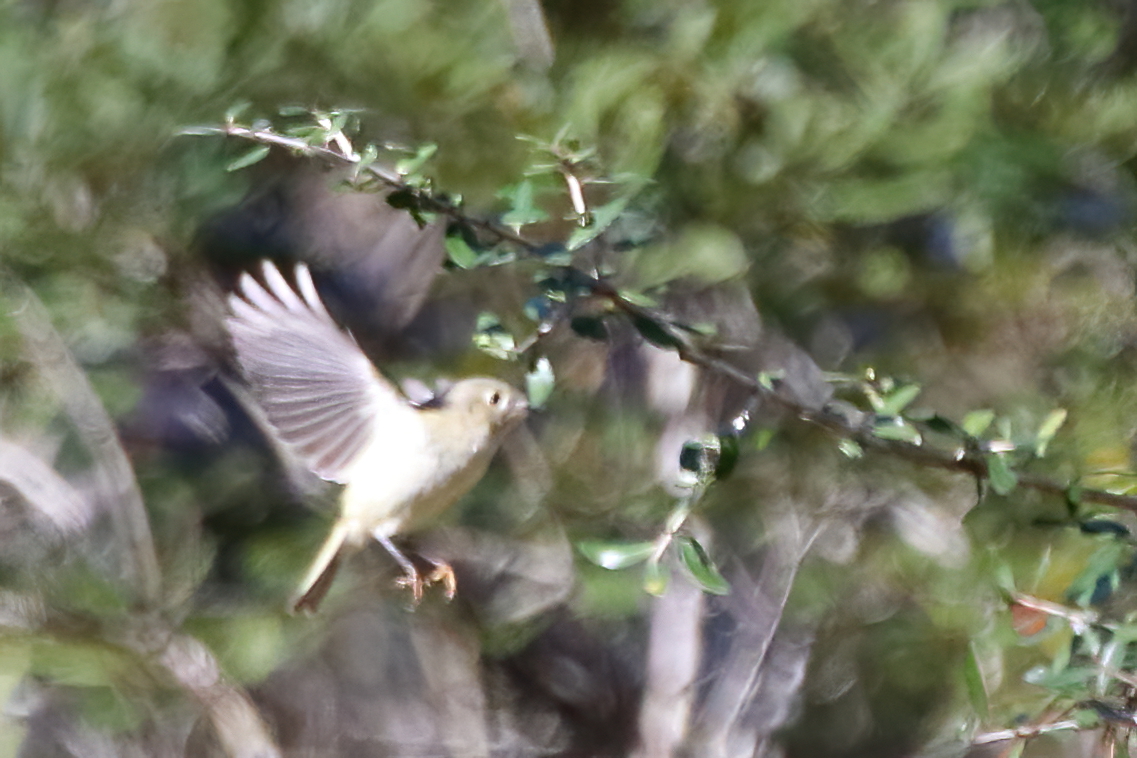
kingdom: Animalia
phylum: Chordata
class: Aves
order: Passeriformes
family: Regulidae
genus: Regulus
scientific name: Regulus calendula
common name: Ruby-crowned kinglet
